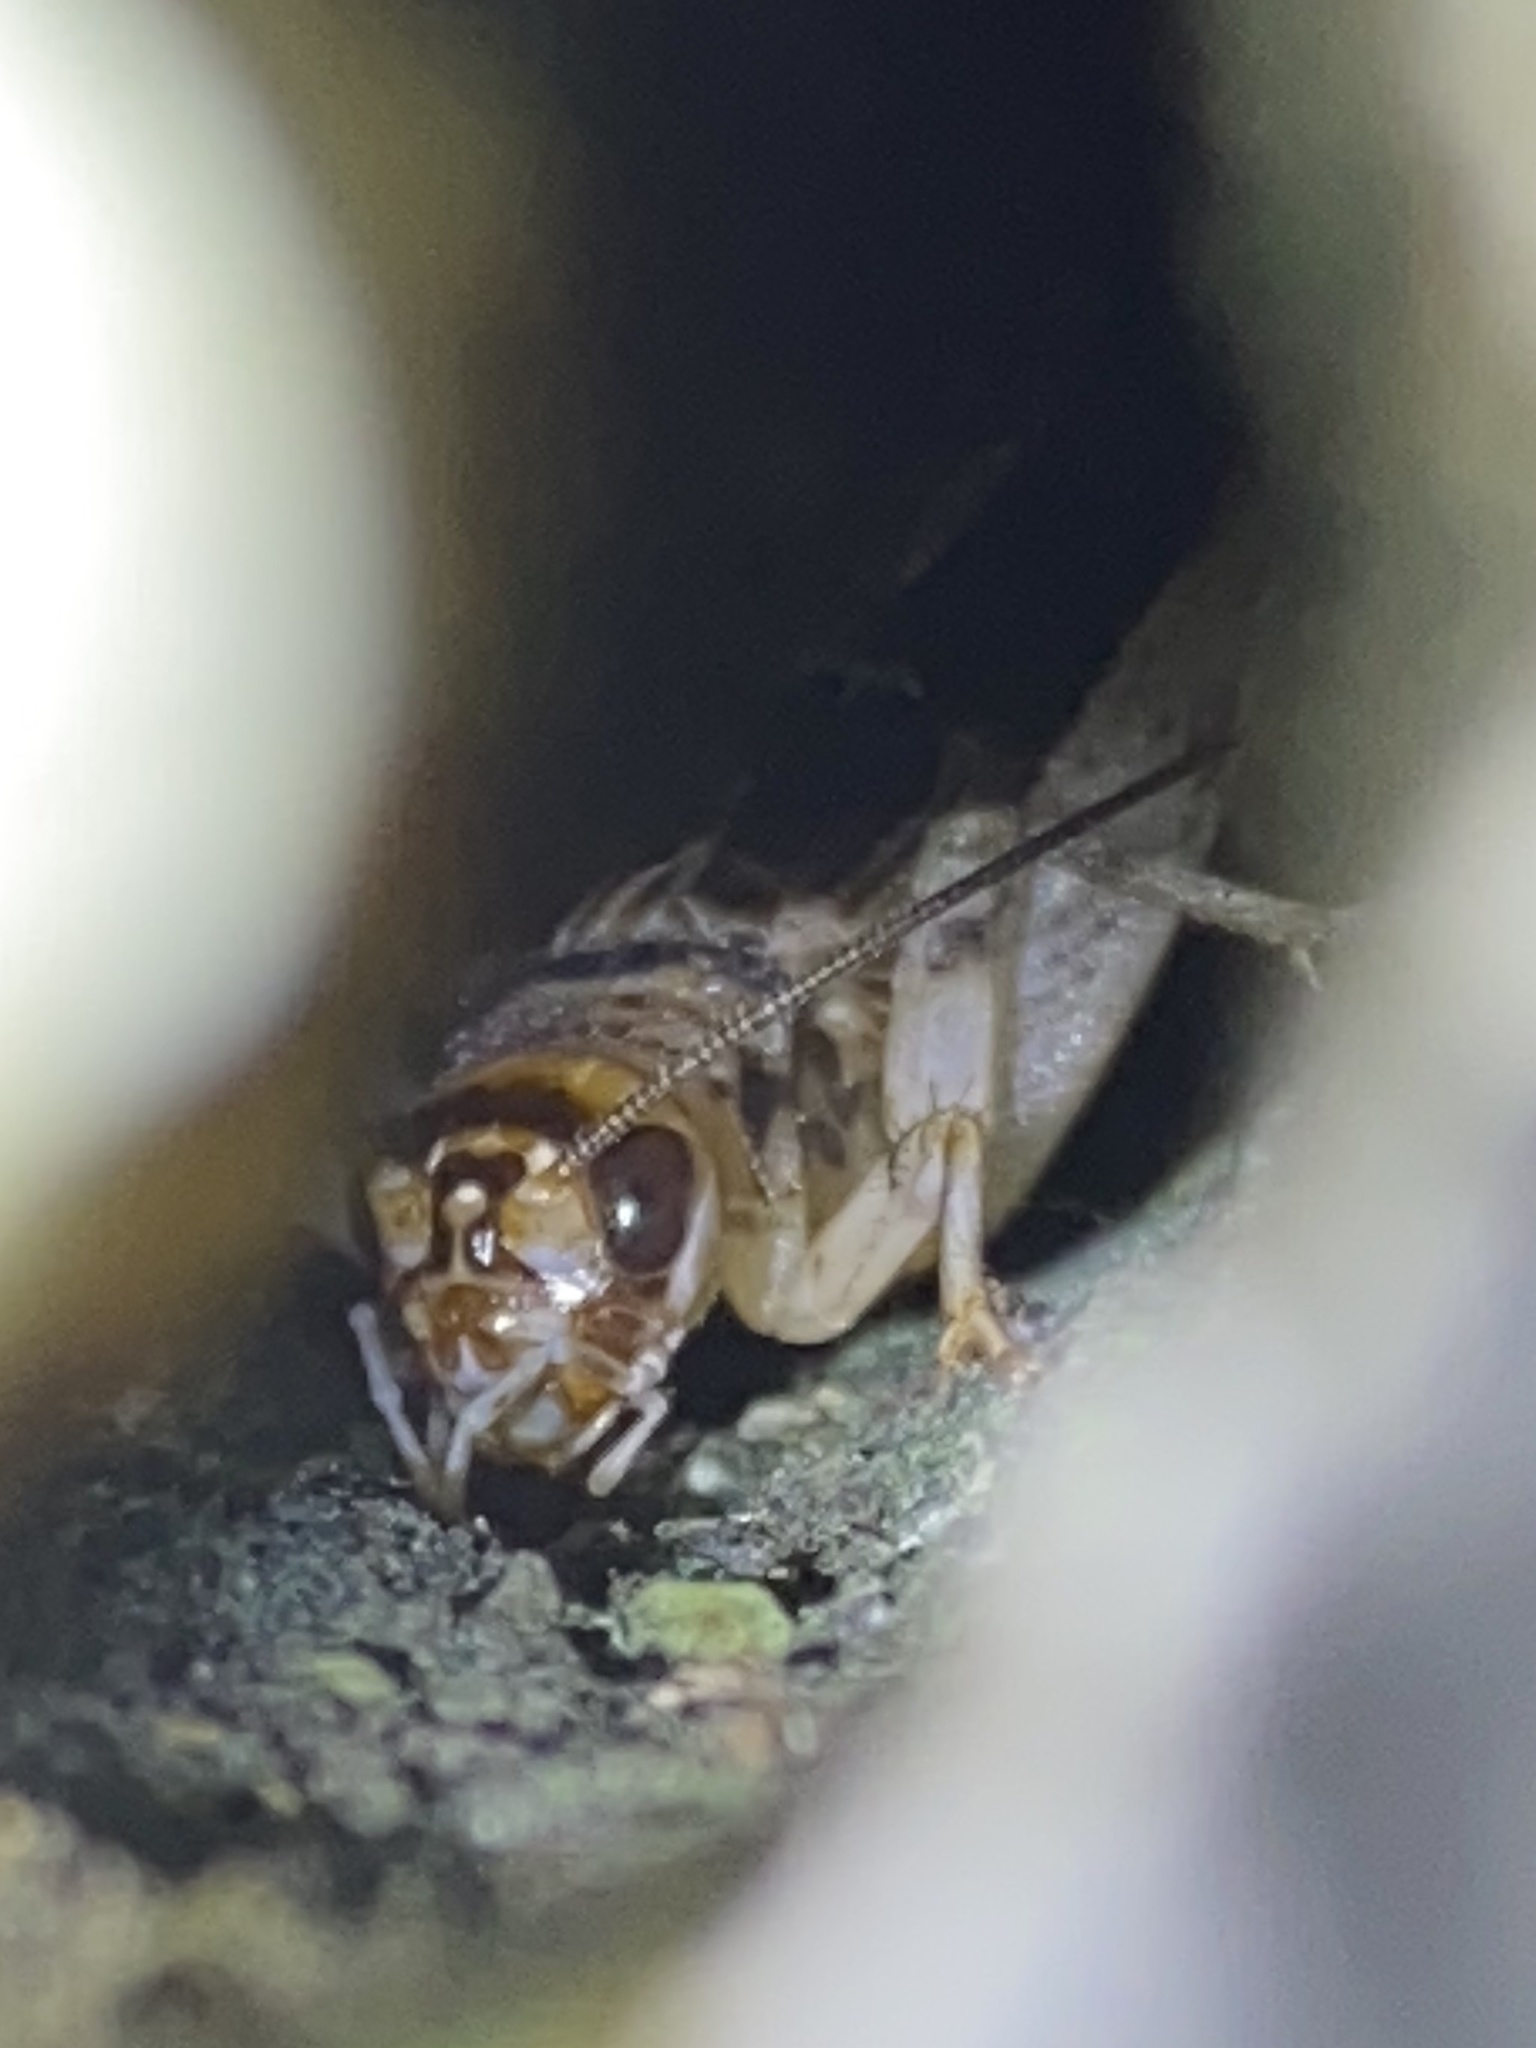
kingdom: Animalia
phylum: Arthropoda
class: Insecta
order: Orthoptera
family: Gryllidae
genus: Gryllodes
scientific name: Gryllodes sigillatus
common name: Tropical house cricket
